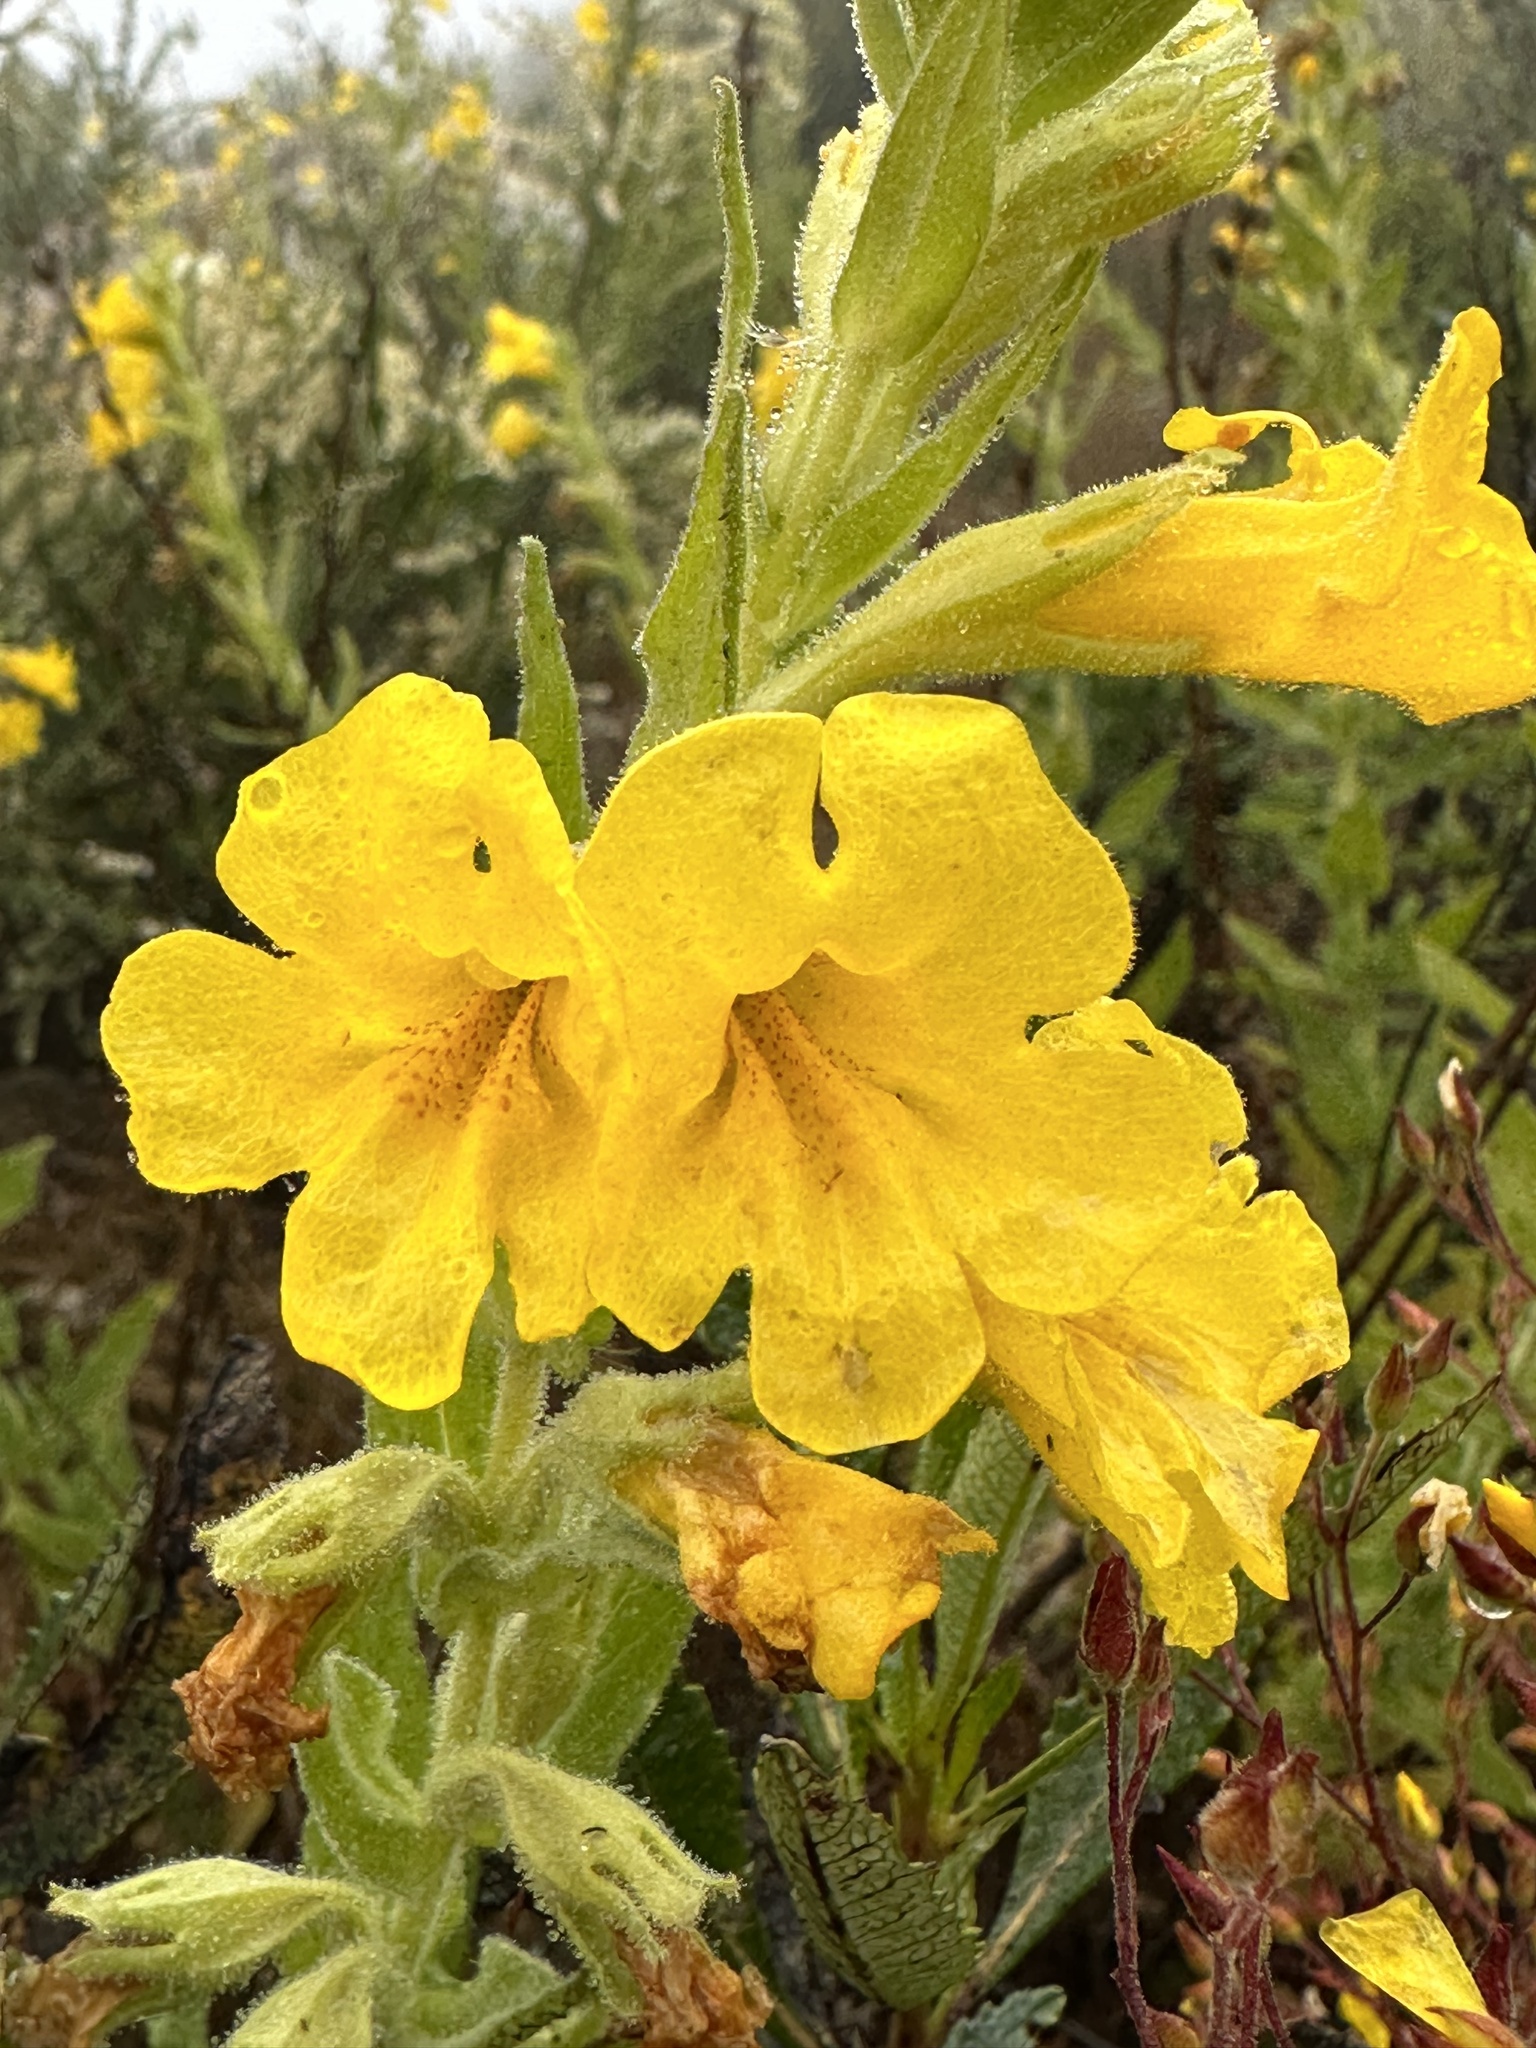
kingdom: Plantae
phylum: Tracheophyta
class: Magnoliopsida
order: Lamiales
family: Phrymaceae
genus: Diplacus
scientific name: Diplacus clevelandii
